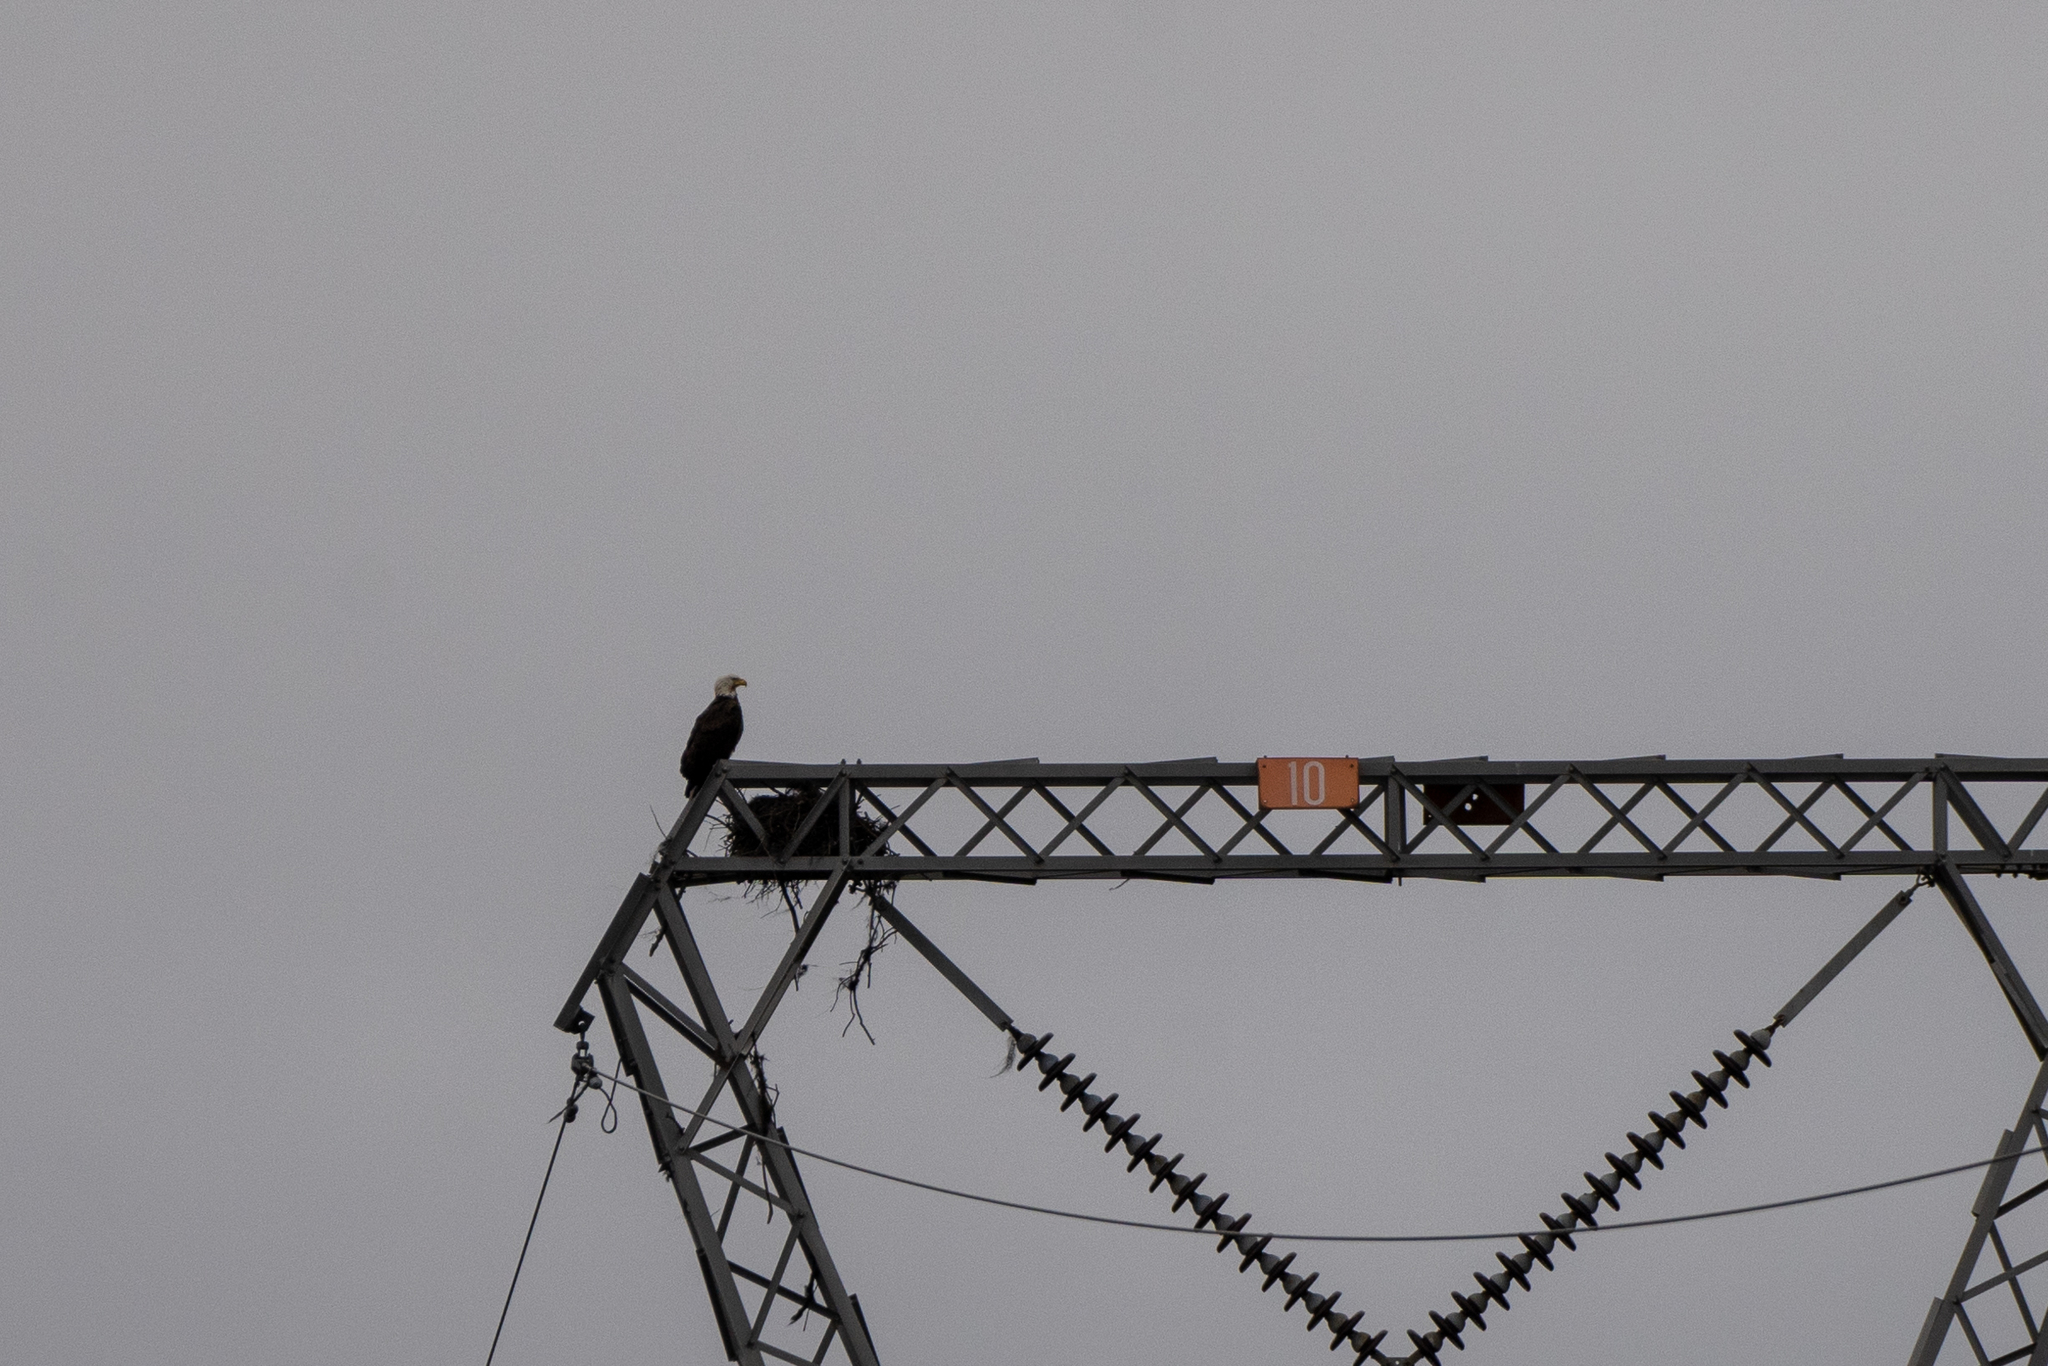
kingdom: Animalia
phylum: Chordata
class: Aves
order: Accipitriformes
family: Accipitridae
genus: Haliaeetus
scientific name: Haliaeetus leucocephalus
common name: Bald eagle
